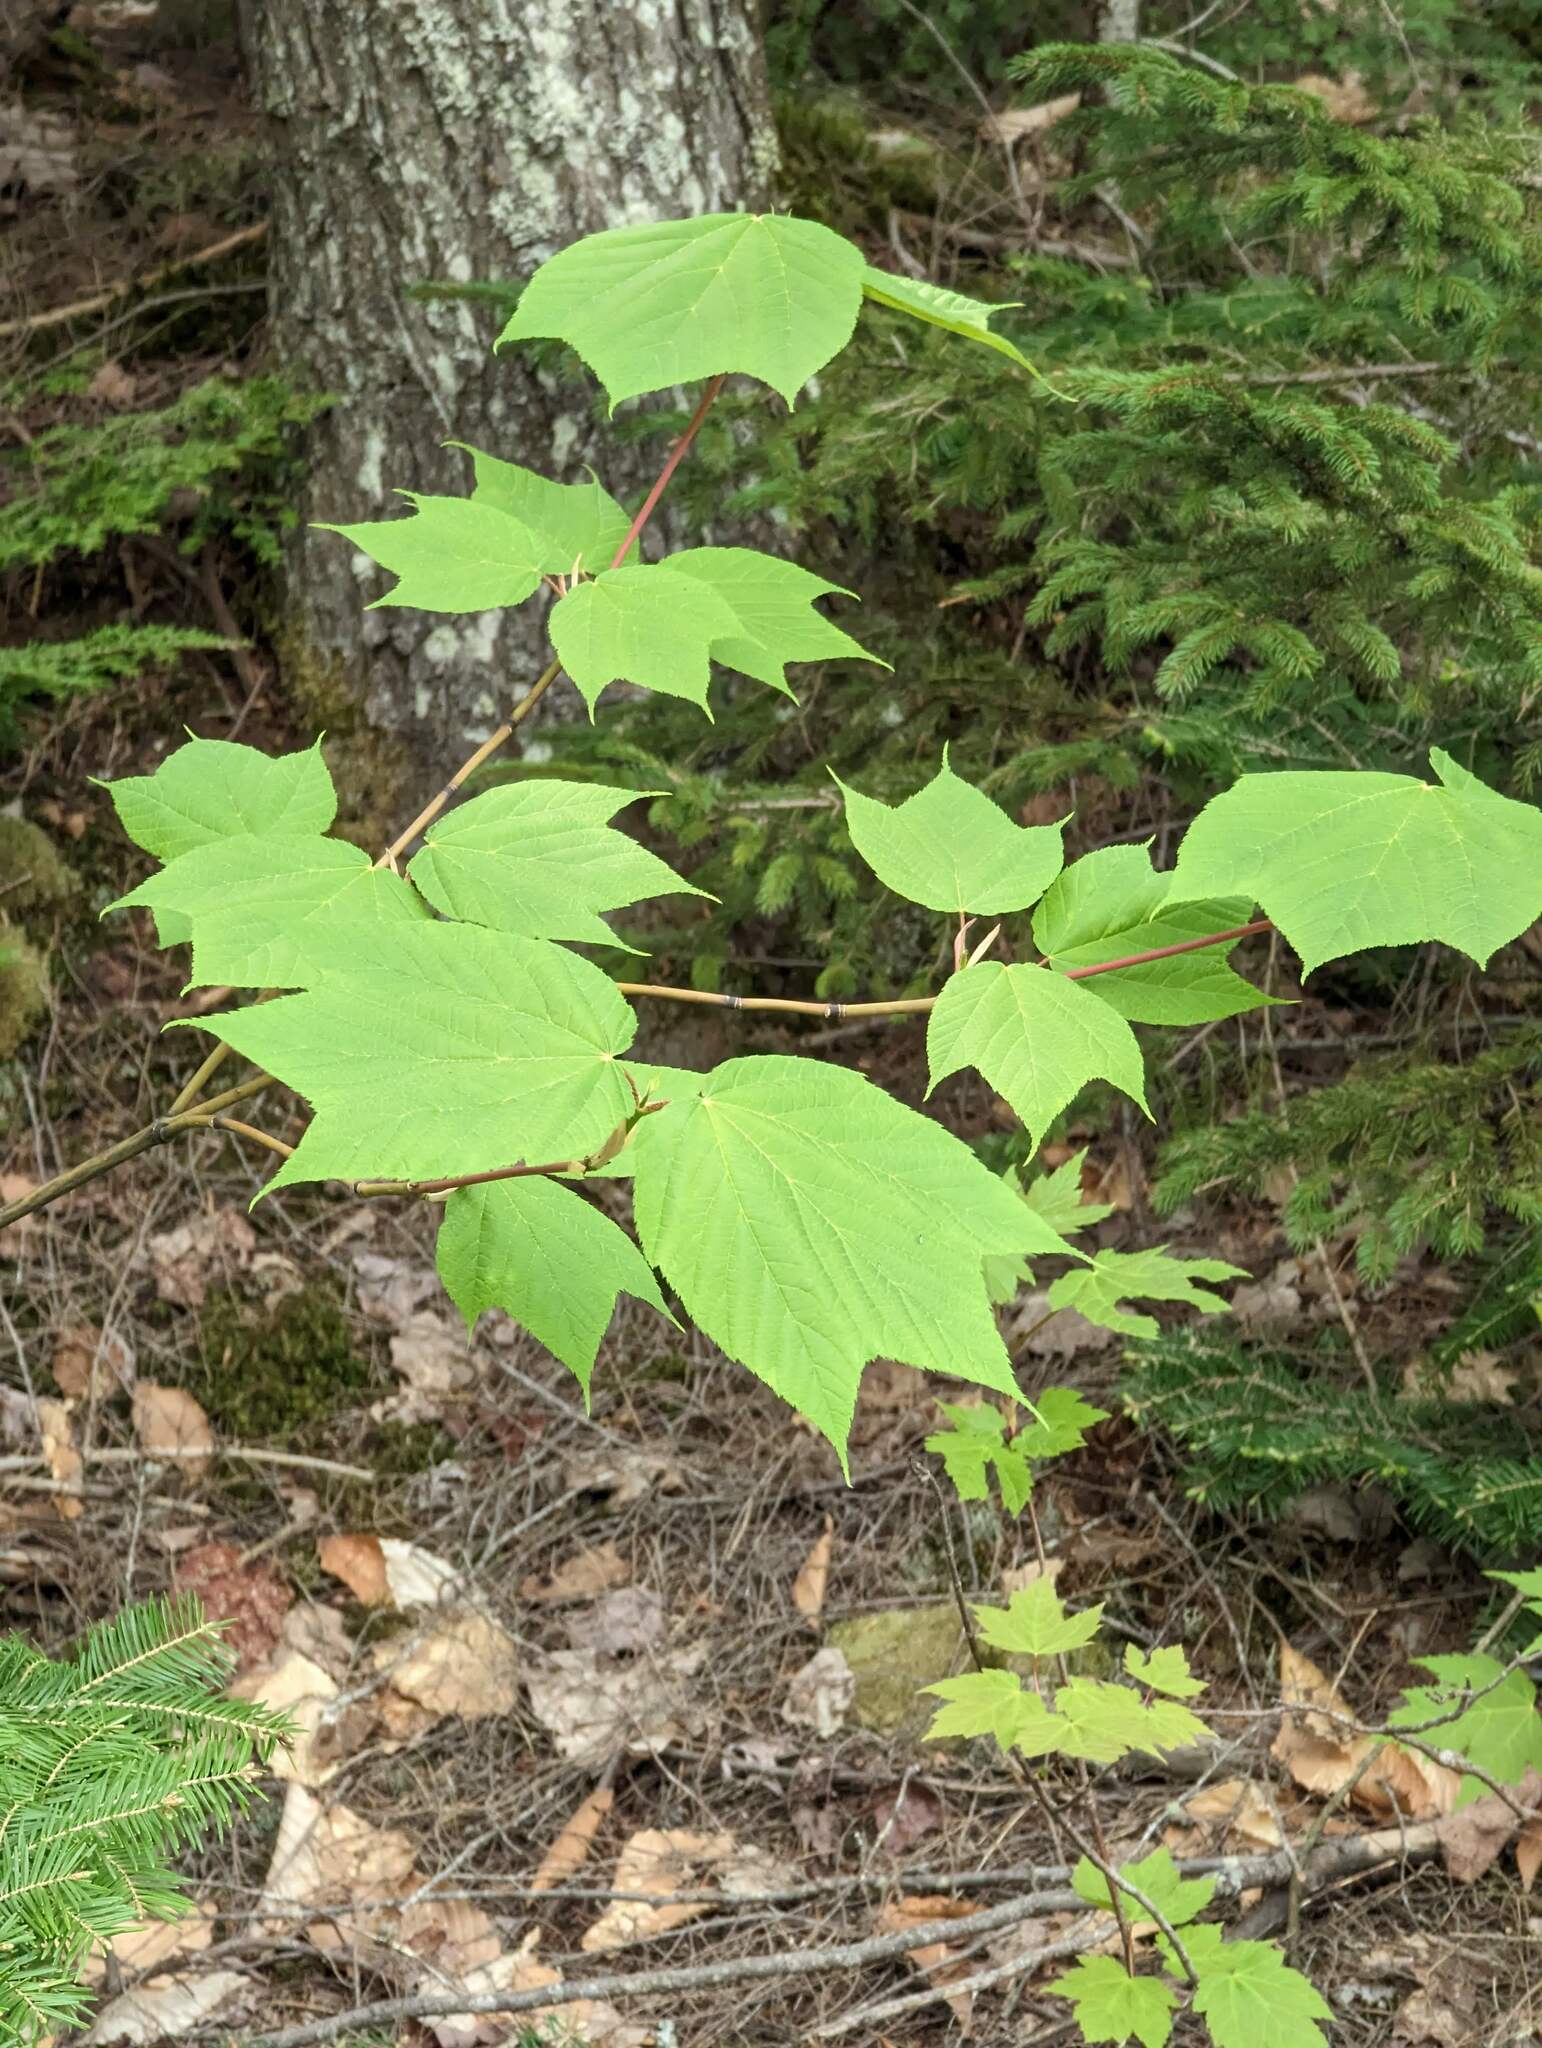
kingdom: Plantae
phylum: Tracheophyta
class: Magnoliopsida
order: Sapindales
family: Sapindaceae
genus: Acer
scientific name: Acer pensylvanicum
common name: Moosewood
